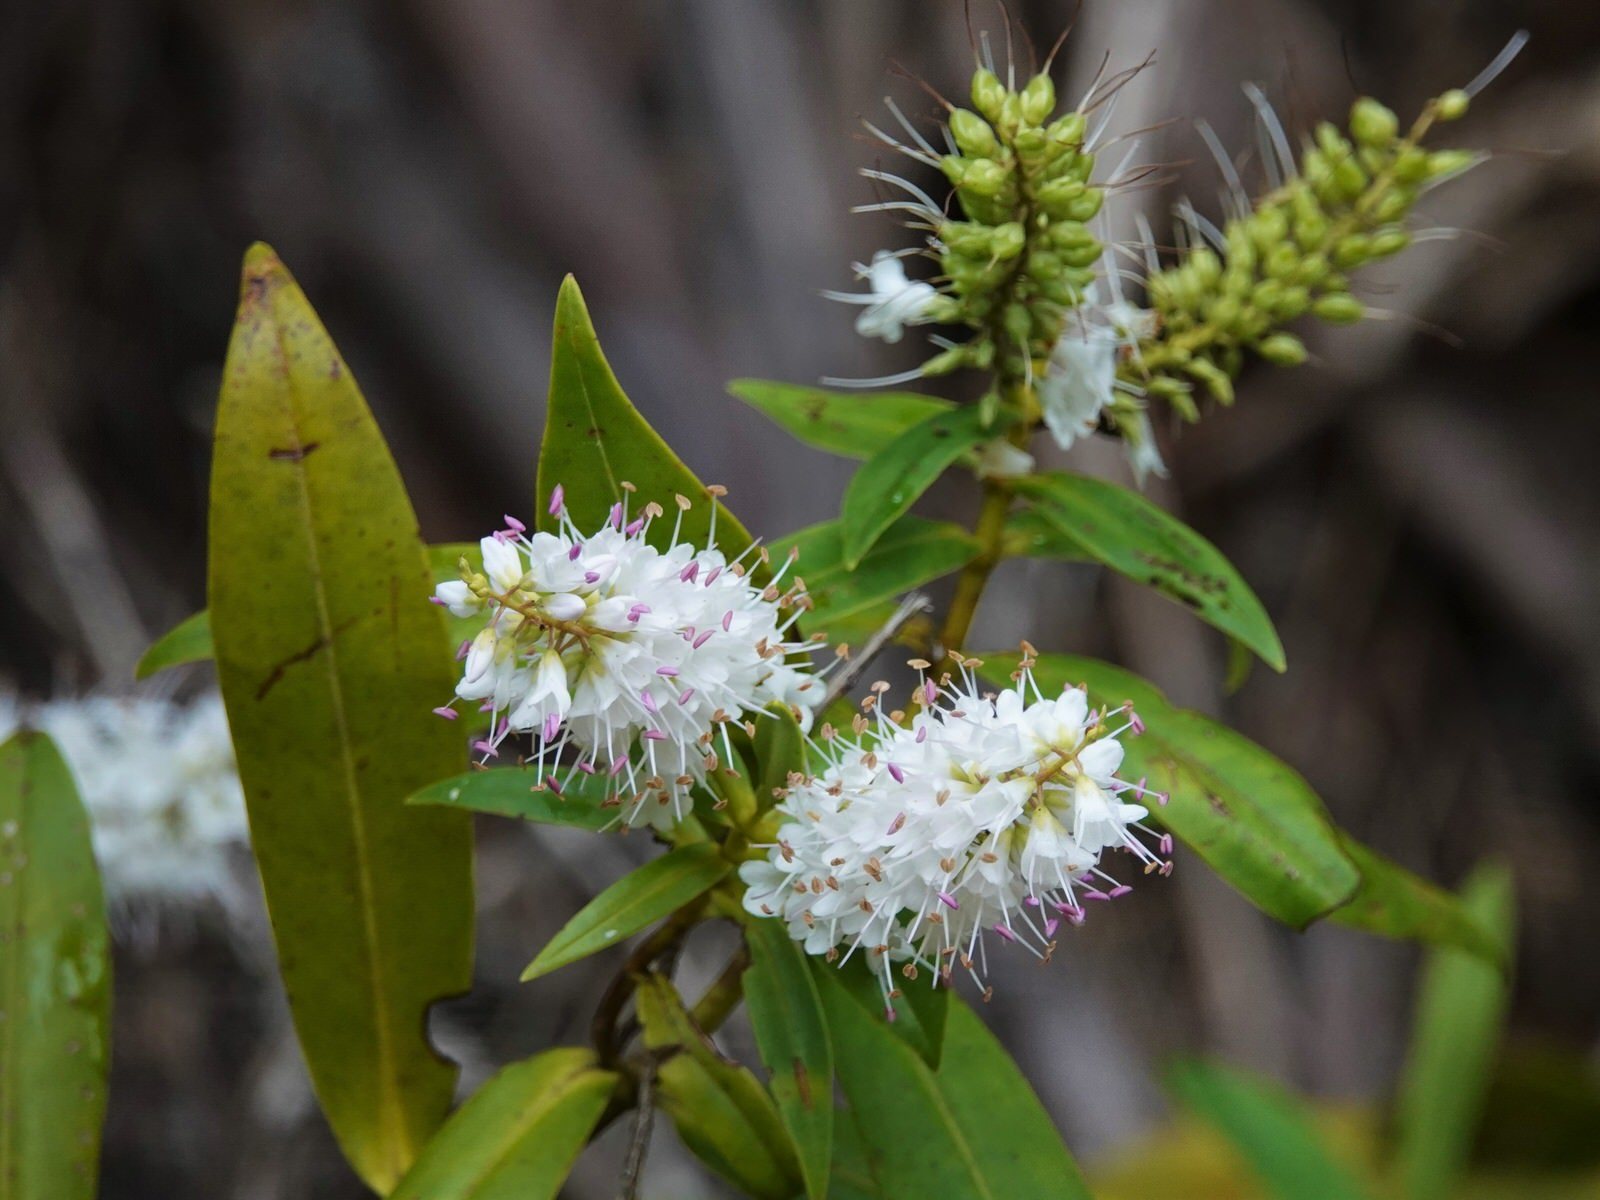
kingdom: Plantae
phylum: Tracheophyta
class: Magnoliopsida
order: Lamiales
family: Plantaginaceae
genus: Veronica
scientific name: Veronica macrocarpa
